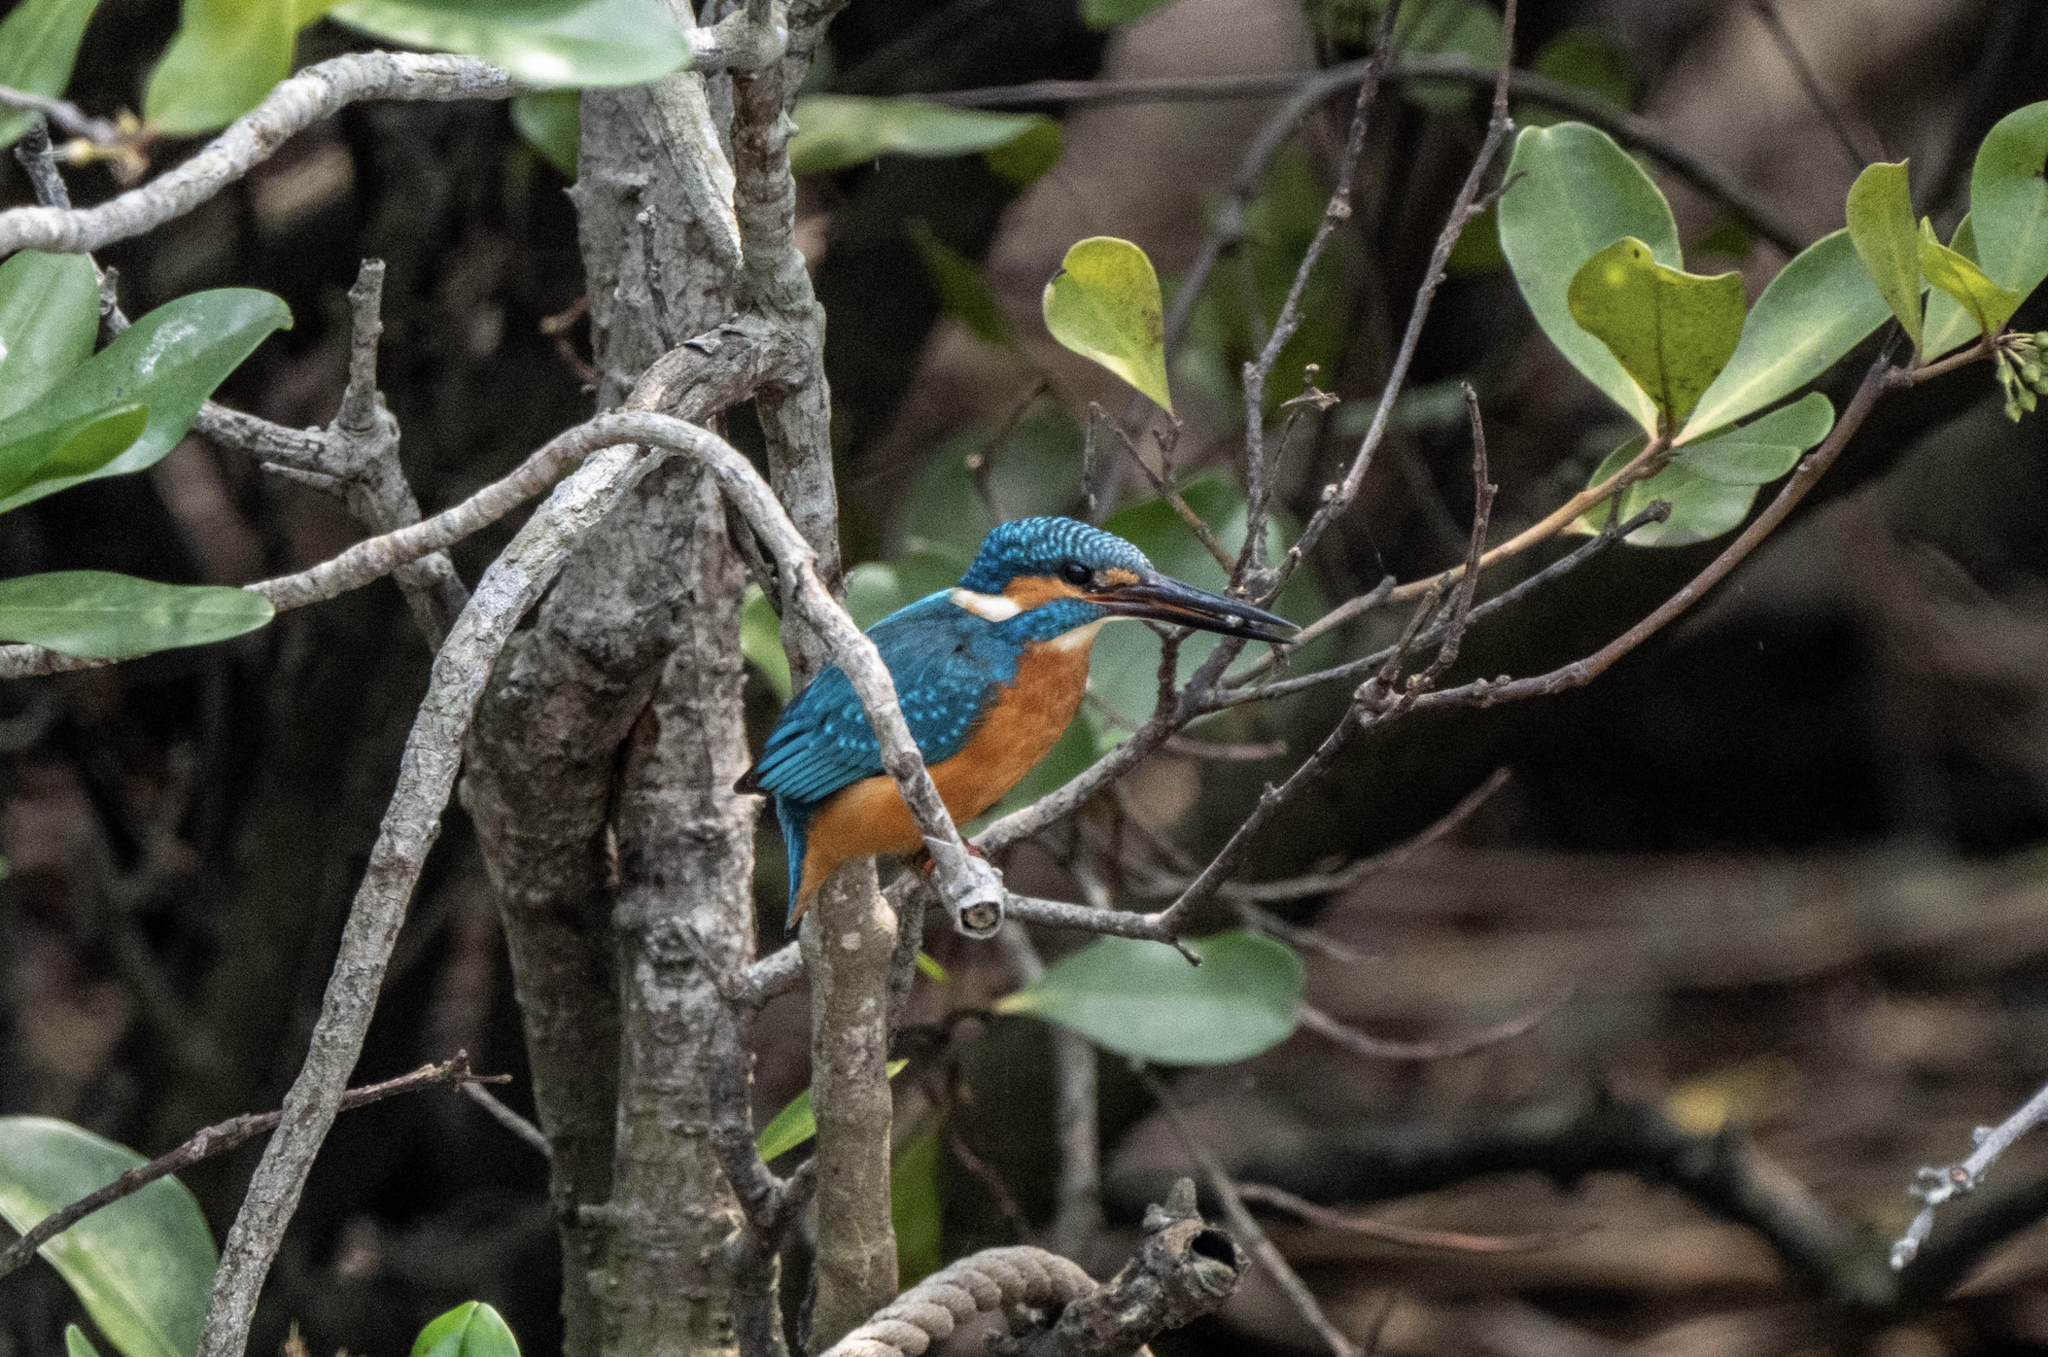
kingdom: Animalia
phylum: Chordata
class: Aves
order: Coraciiformes
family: Alcedinidae
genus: Alcedo
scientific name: Alcedo atthis
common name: Common kingfisher
